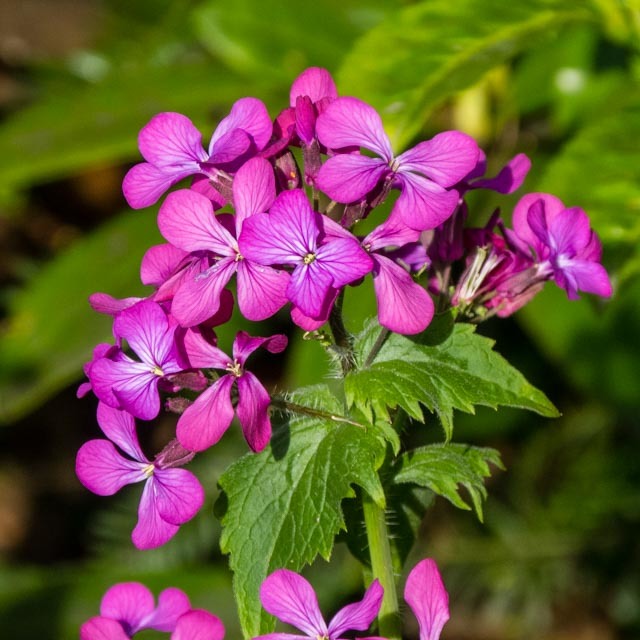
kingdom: Plantae
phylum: Tracheophyta
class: Magnoliopsida
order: Brassicales
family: Brassicaceae
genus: Lunaria
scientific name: Lunaria annua
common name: Honesty
